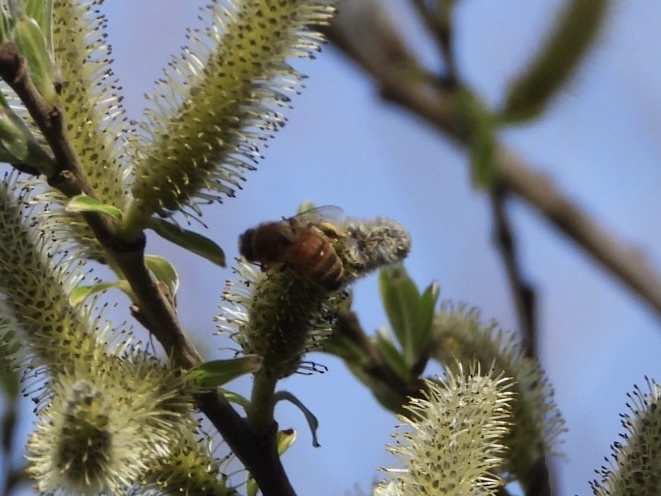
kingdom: Animalia
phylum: Arthropoda
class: Insecta
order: Hymenoptera
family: Apidae
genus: Apis
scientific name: Apis mellifera
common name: Honey bee
